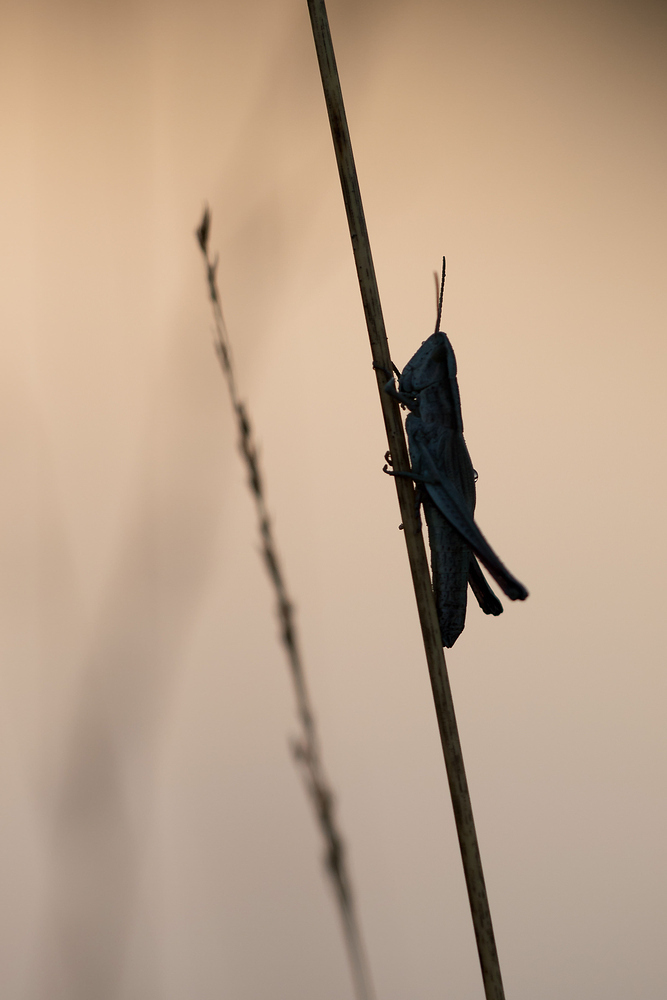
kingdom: Animalia
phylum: Arthropoda
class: Insecta
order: Orthoptera
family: Acrididae
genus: Chrysochraon
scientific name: Chrysochraon dispar
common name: Large gold grasshopper
